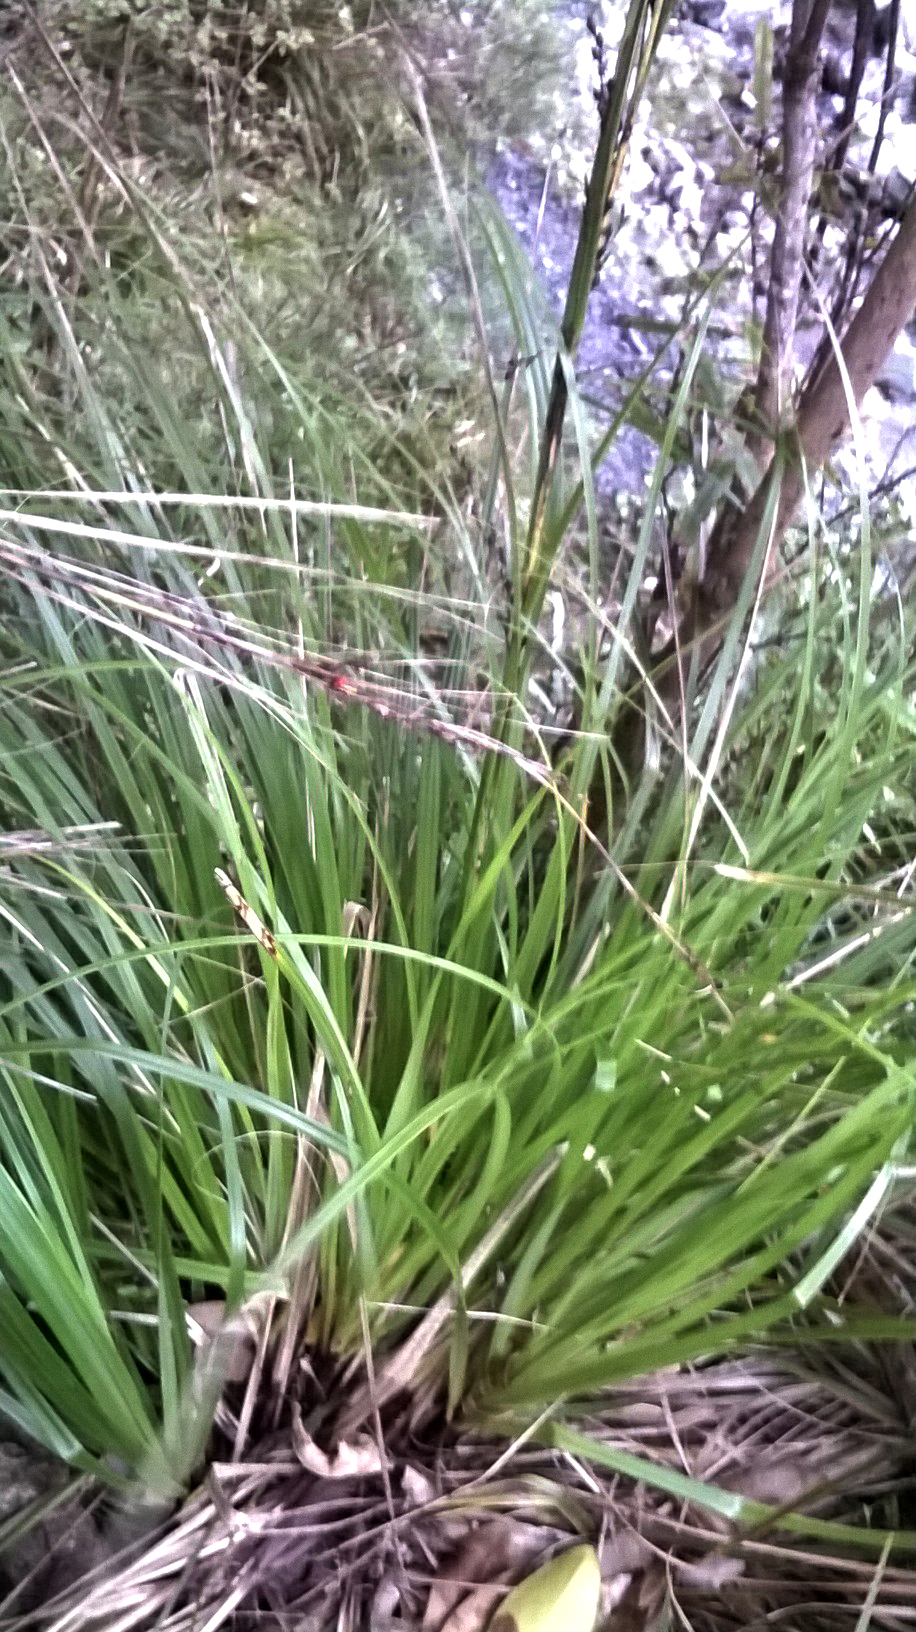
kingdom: Plantae
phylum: Tracheophyta
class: Liliopsida
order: Poales
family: Cyperaceae
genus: Gahnia
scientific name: Gahnia pauciflora
